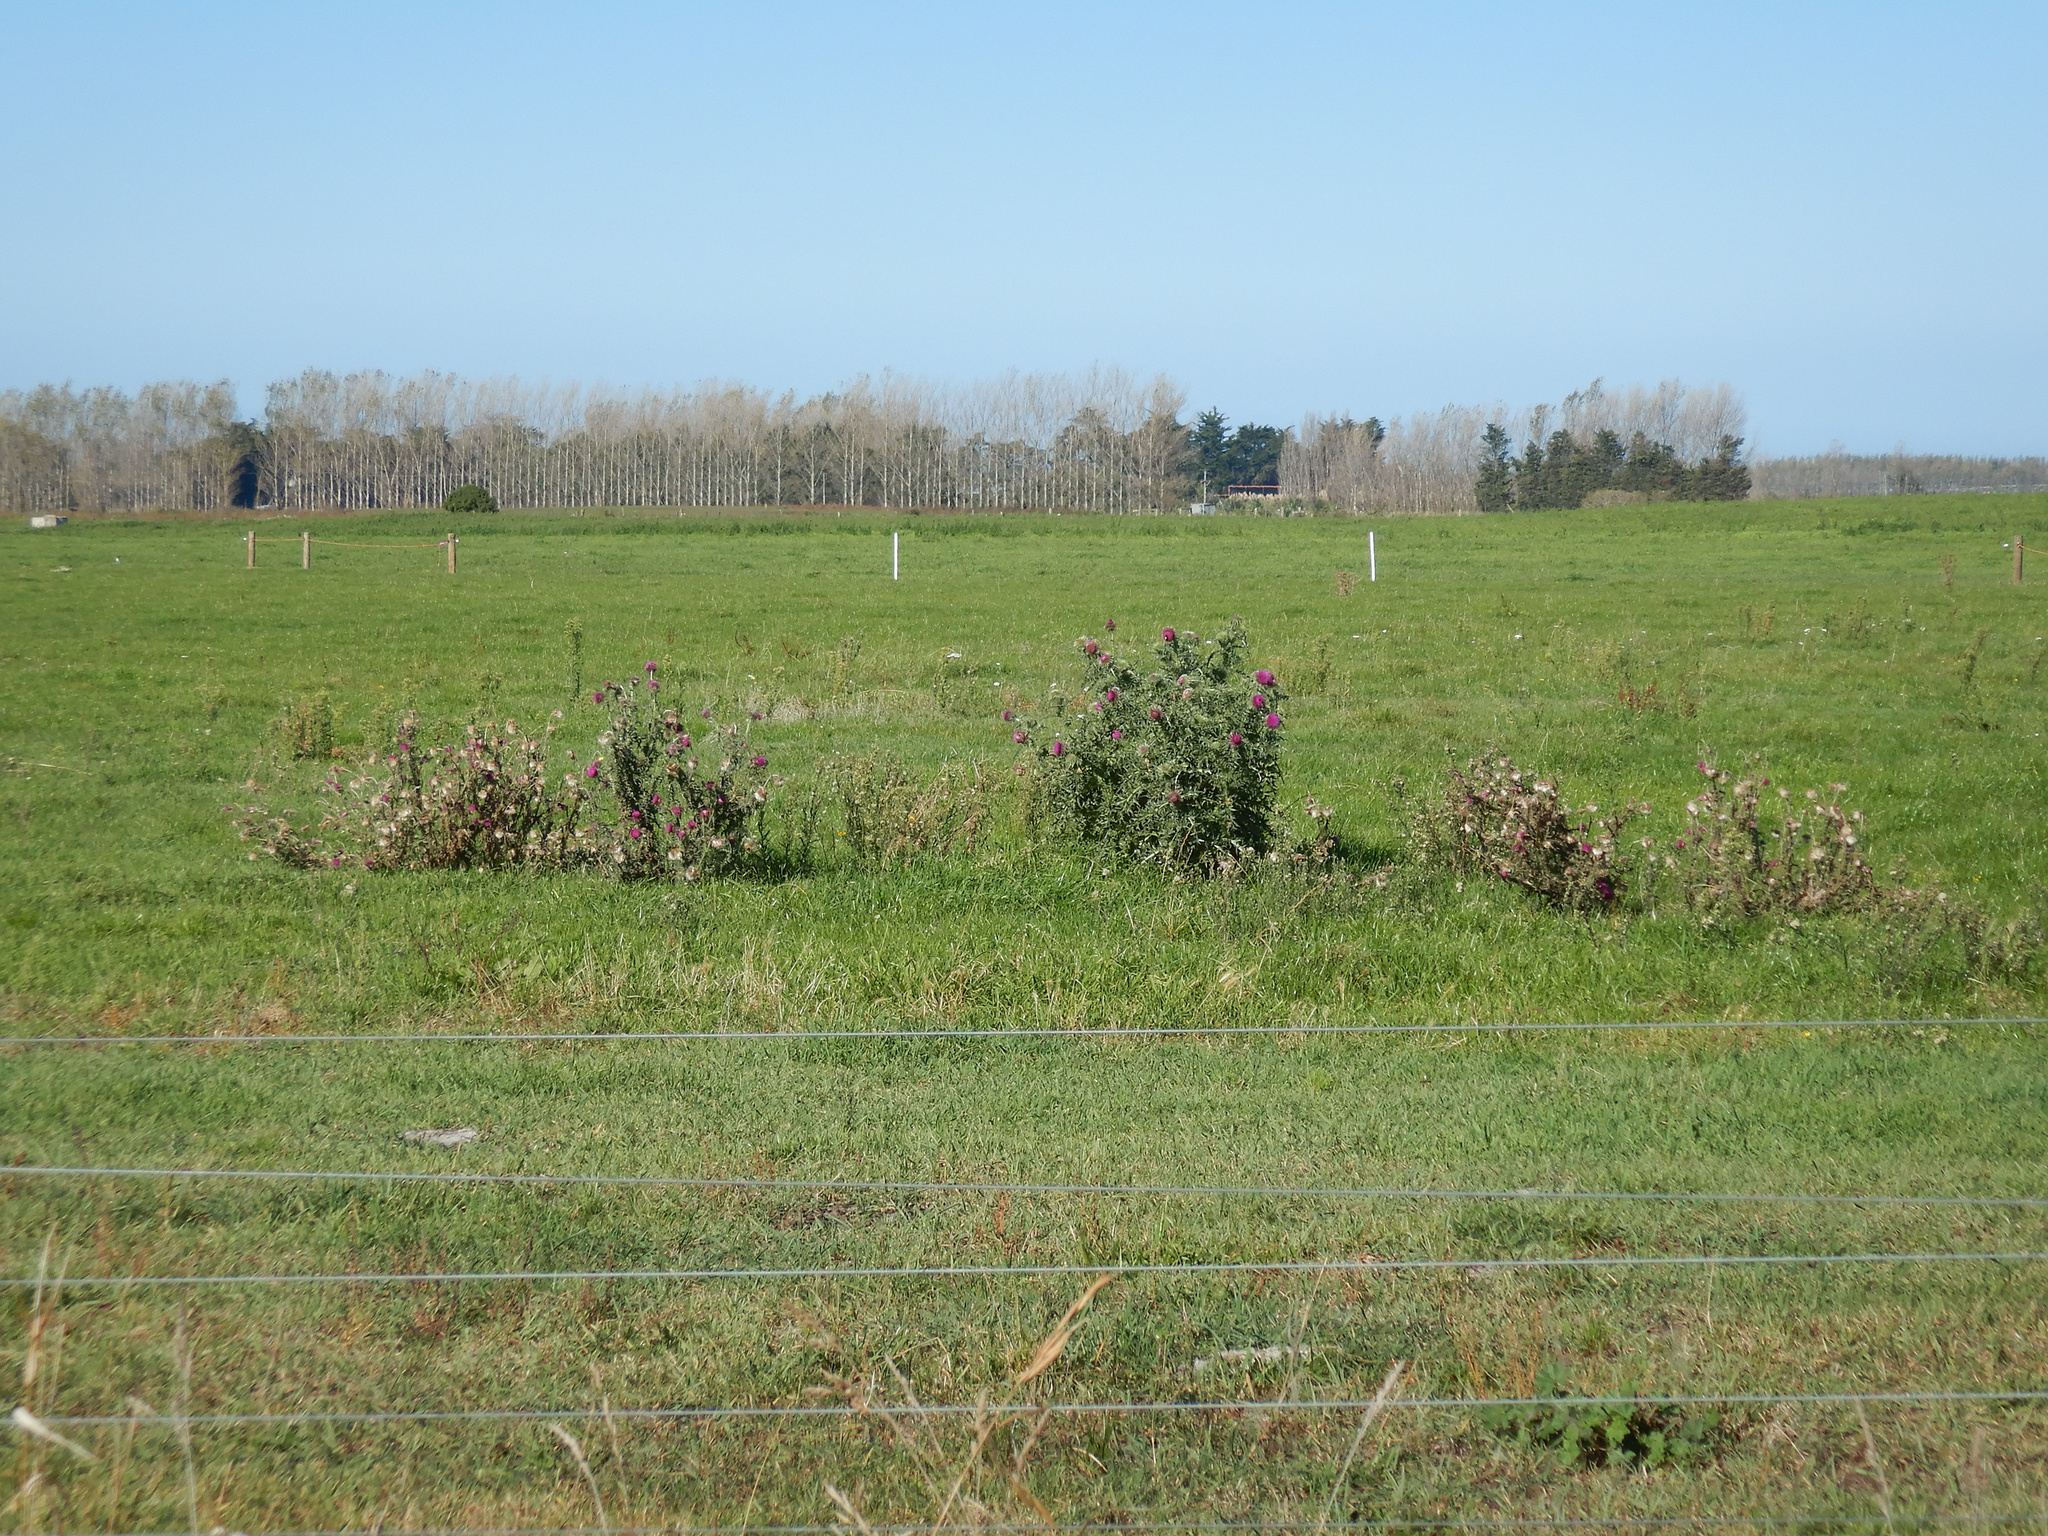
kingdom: Plantae
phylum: Tracheophyta
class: Magnoliopsida
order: Asterales
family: Asteraceae
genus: Carduus
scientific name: Carduus nutans
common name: Musk thistle
